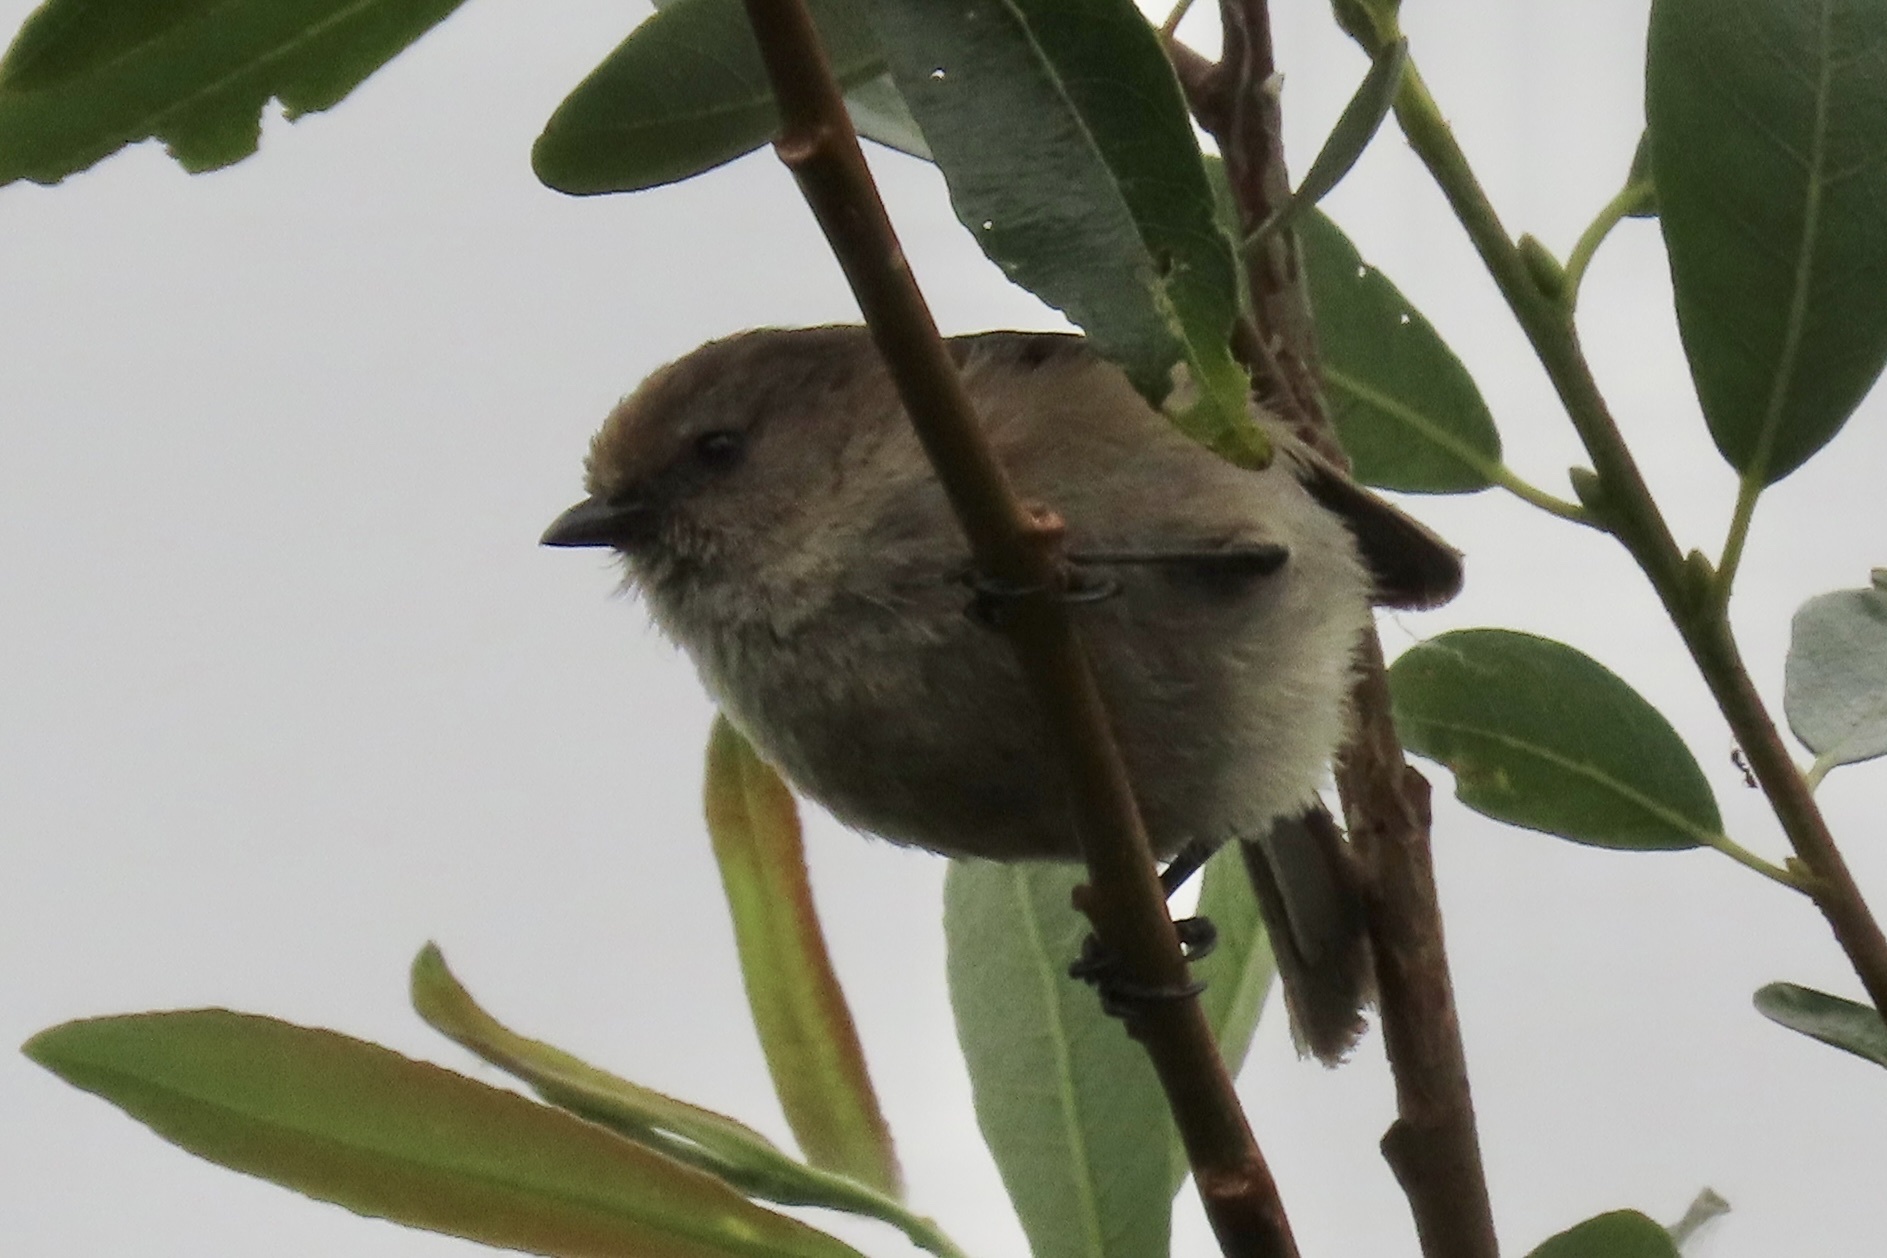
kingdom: Animalia
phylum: Chordata
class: Aves
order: Passeriformes
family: Aegithalidae
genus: Psaltriparus
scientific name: Psaltriparus minimus
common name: American bushtit
